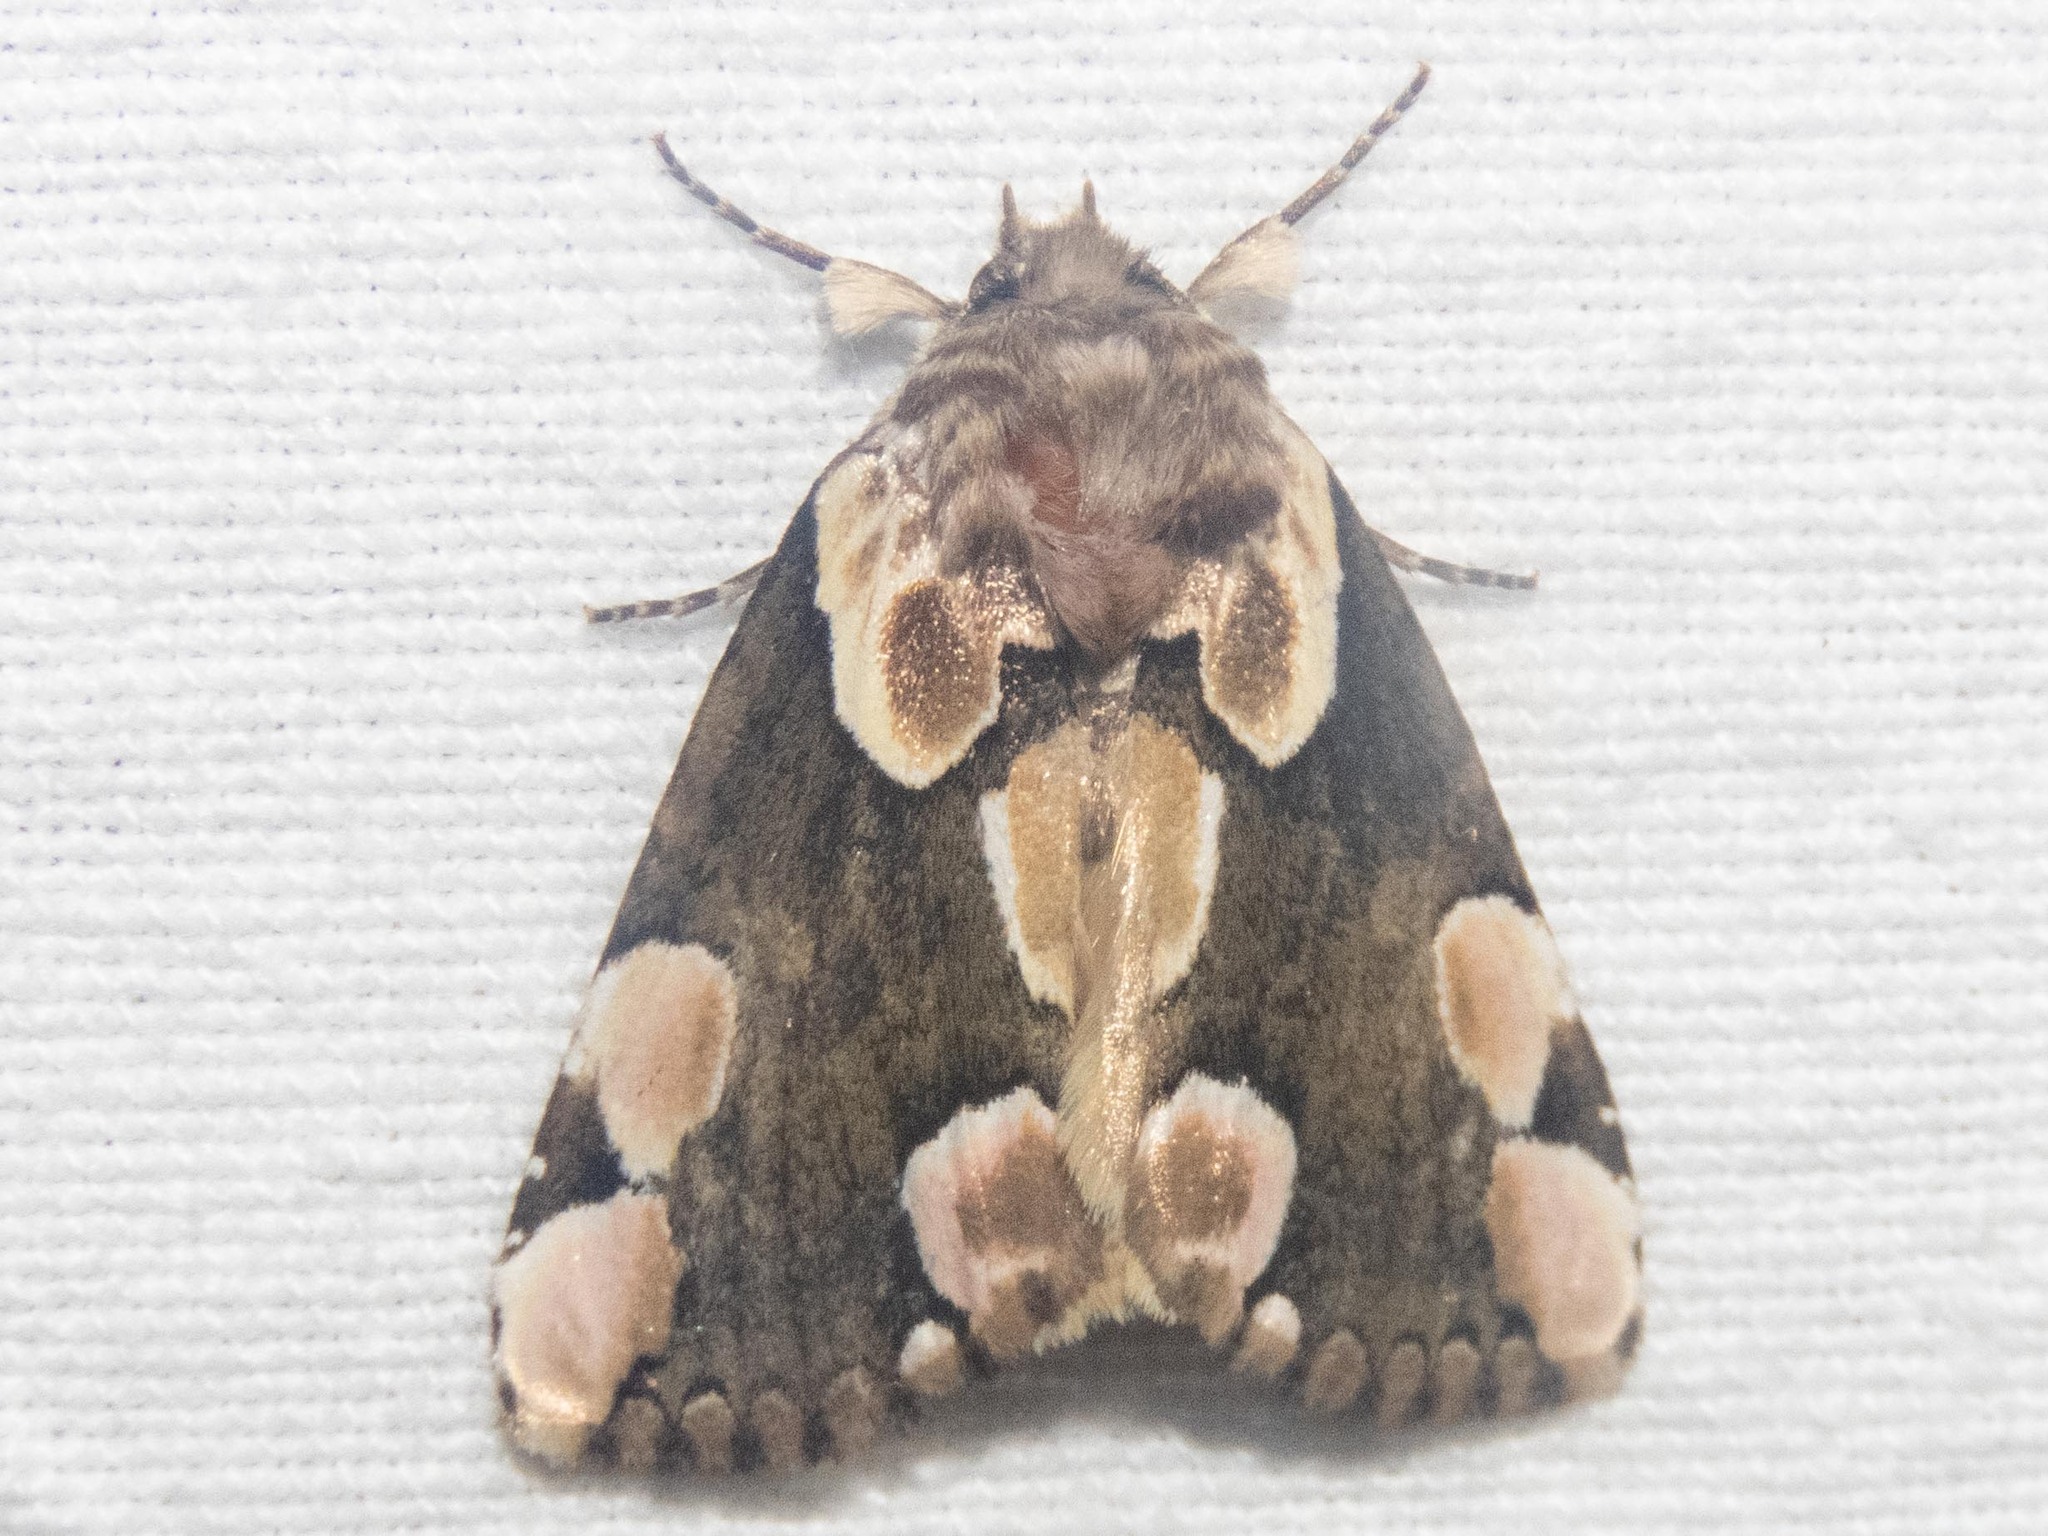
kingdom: Animalia
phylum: Arthropoda
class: Insecta
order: Lepidoptera
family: Drepanidae
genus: Thyatira
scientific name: Thyatira batis
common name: Peach blossom
